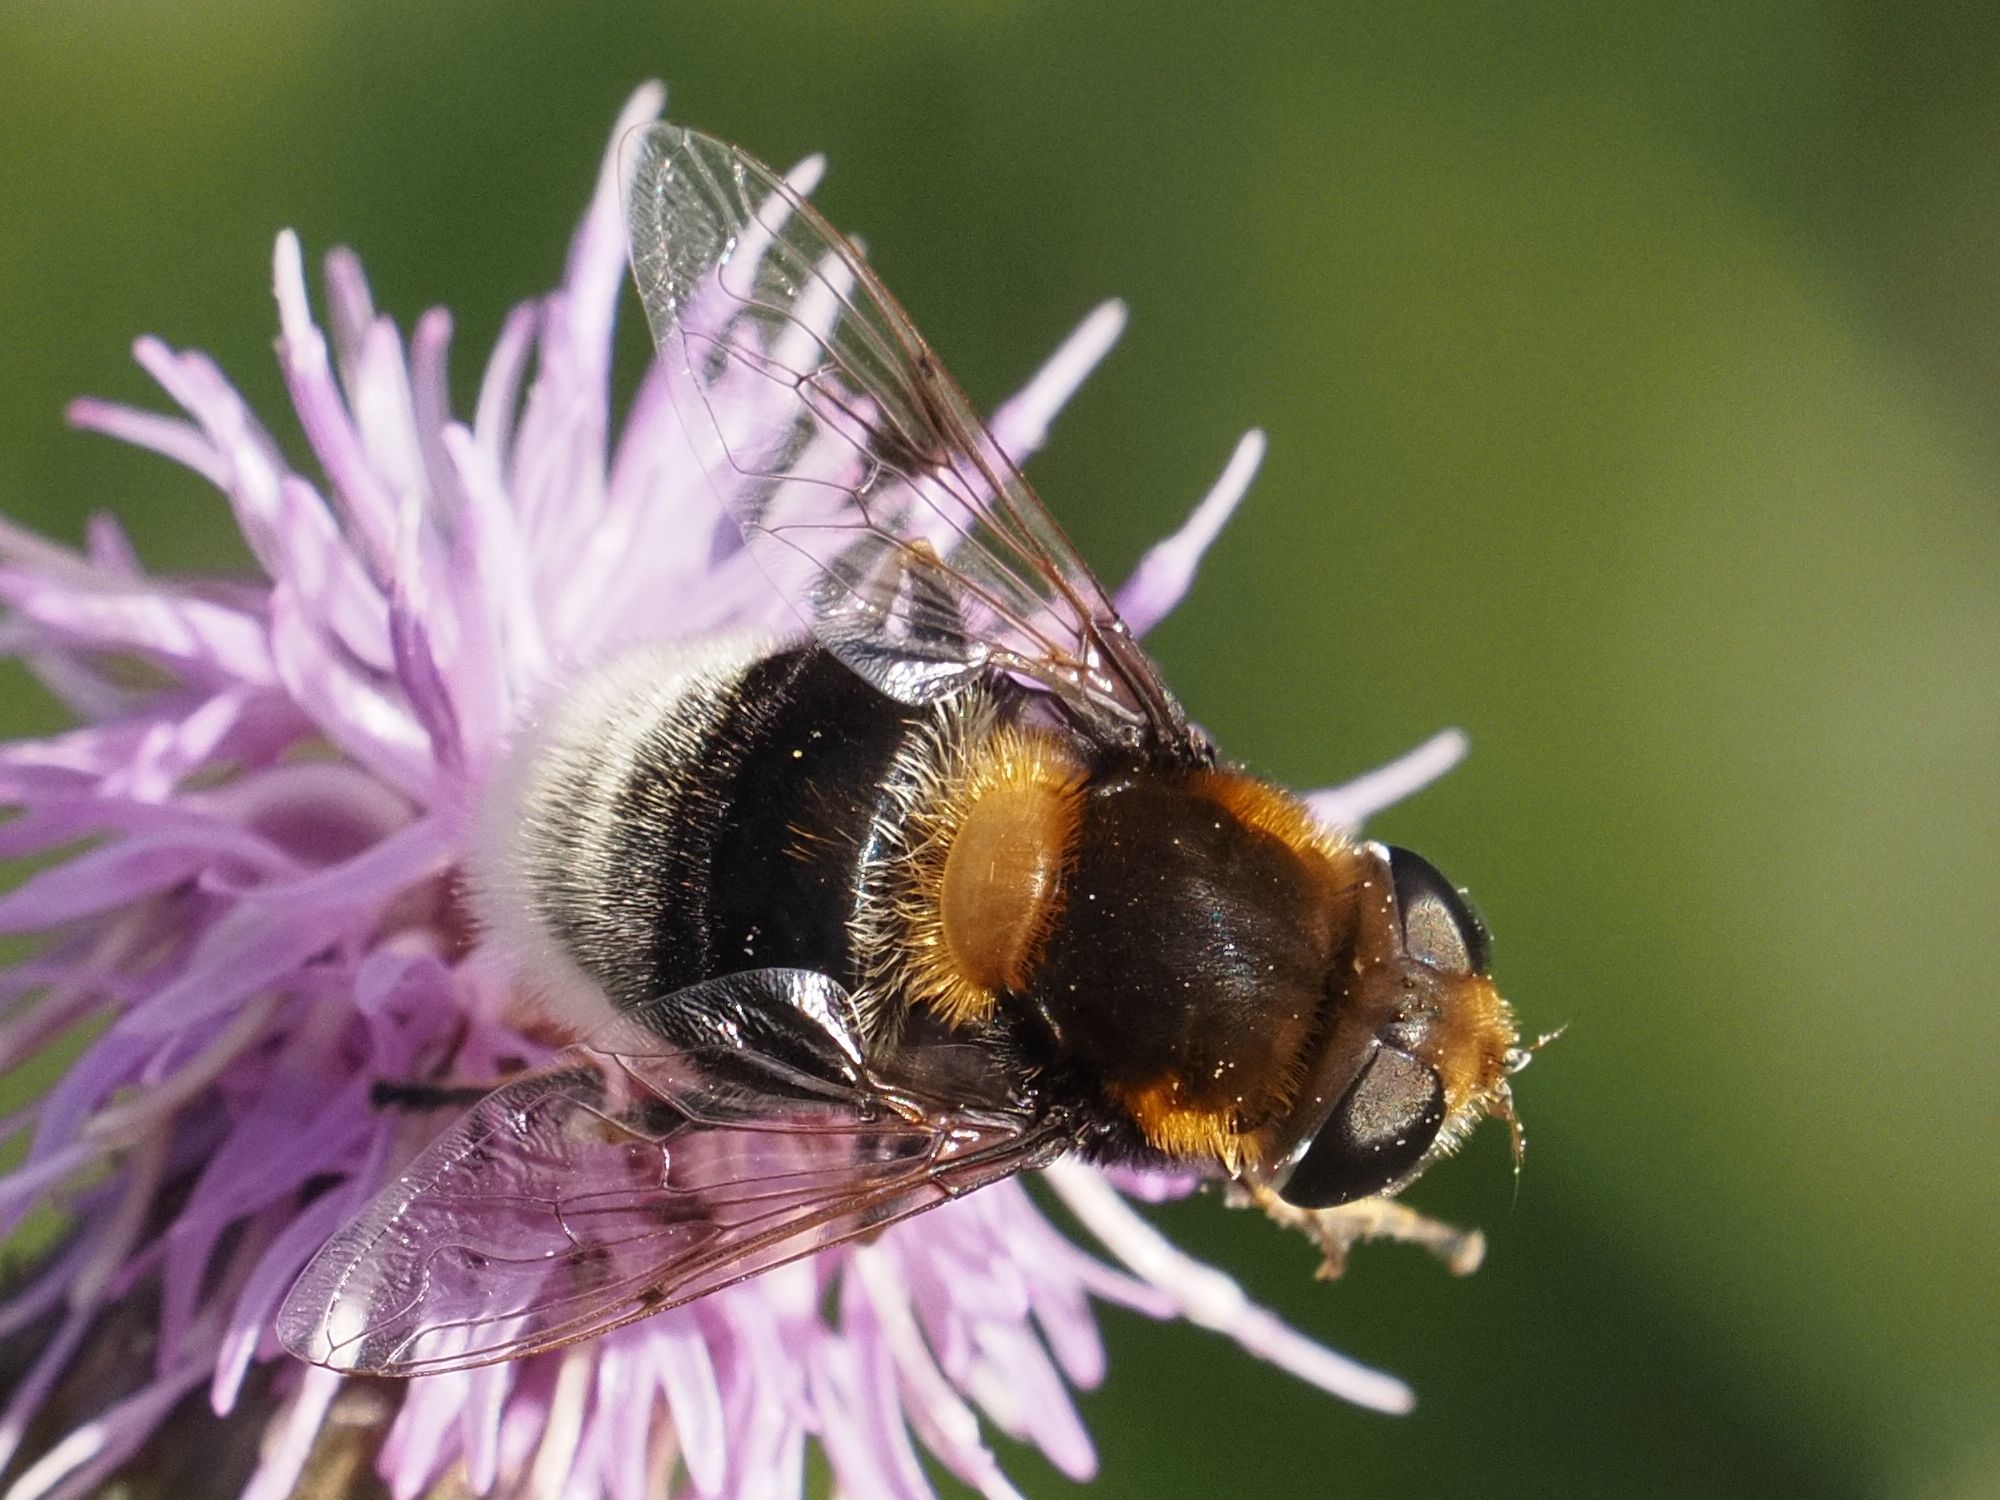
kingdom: Animalia
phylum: Arthropoda
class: Insecta
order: Diptera
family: Syrphidae
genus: Eristalis
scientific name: Eristalis intricaria
